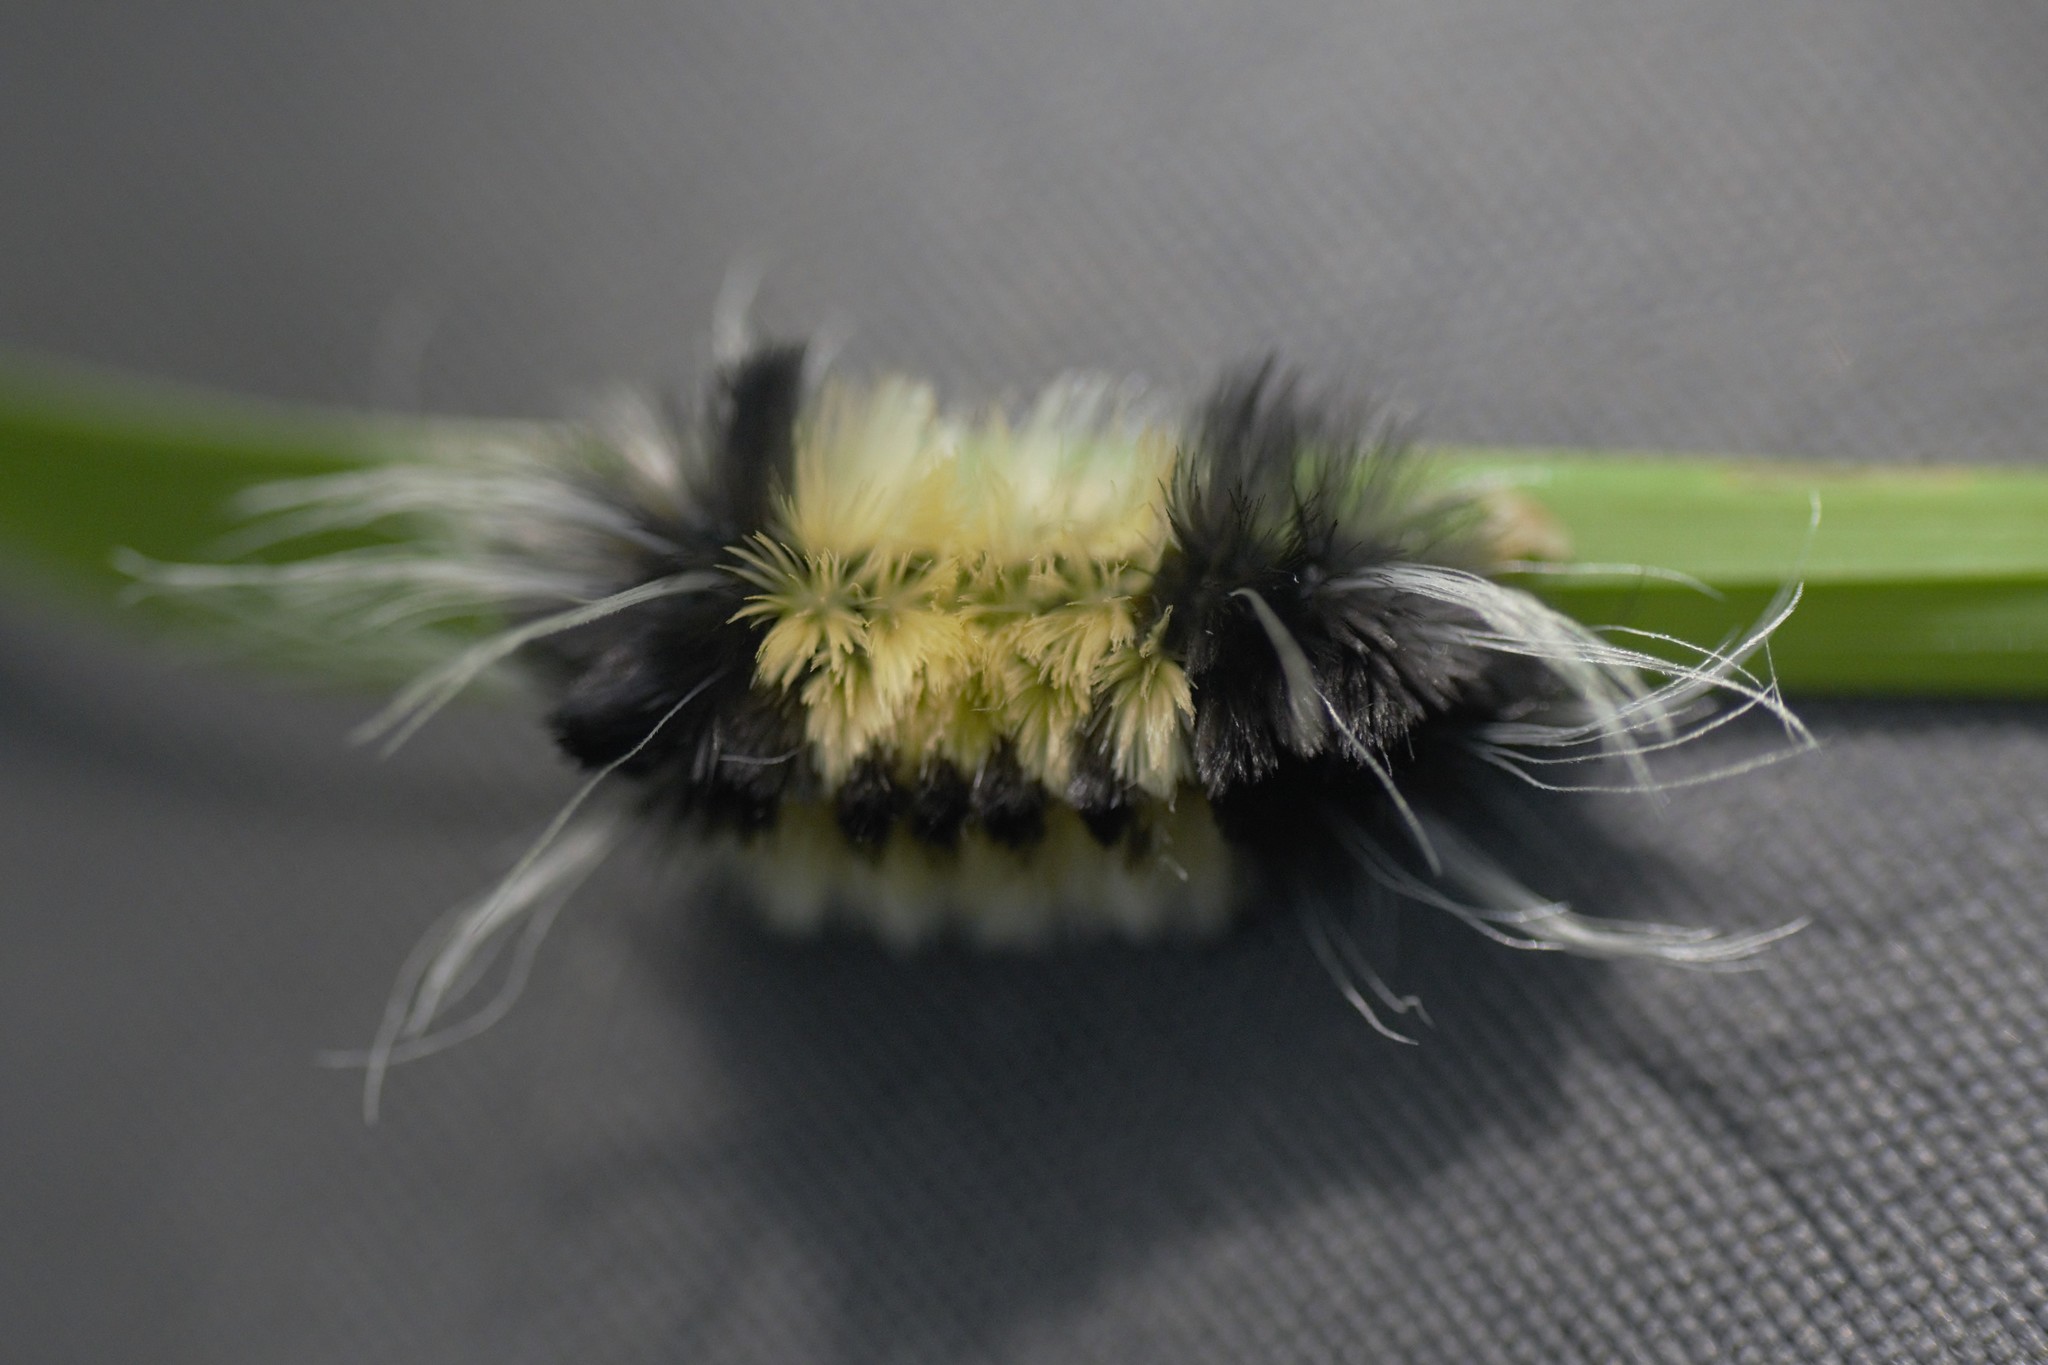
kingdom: Animalia
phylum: Arthropoda
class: Insecta
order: Lepidoptera
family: Erebidae
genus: Lophocampa
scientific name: Lophocampa maculata
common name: Spotted tussock moth
